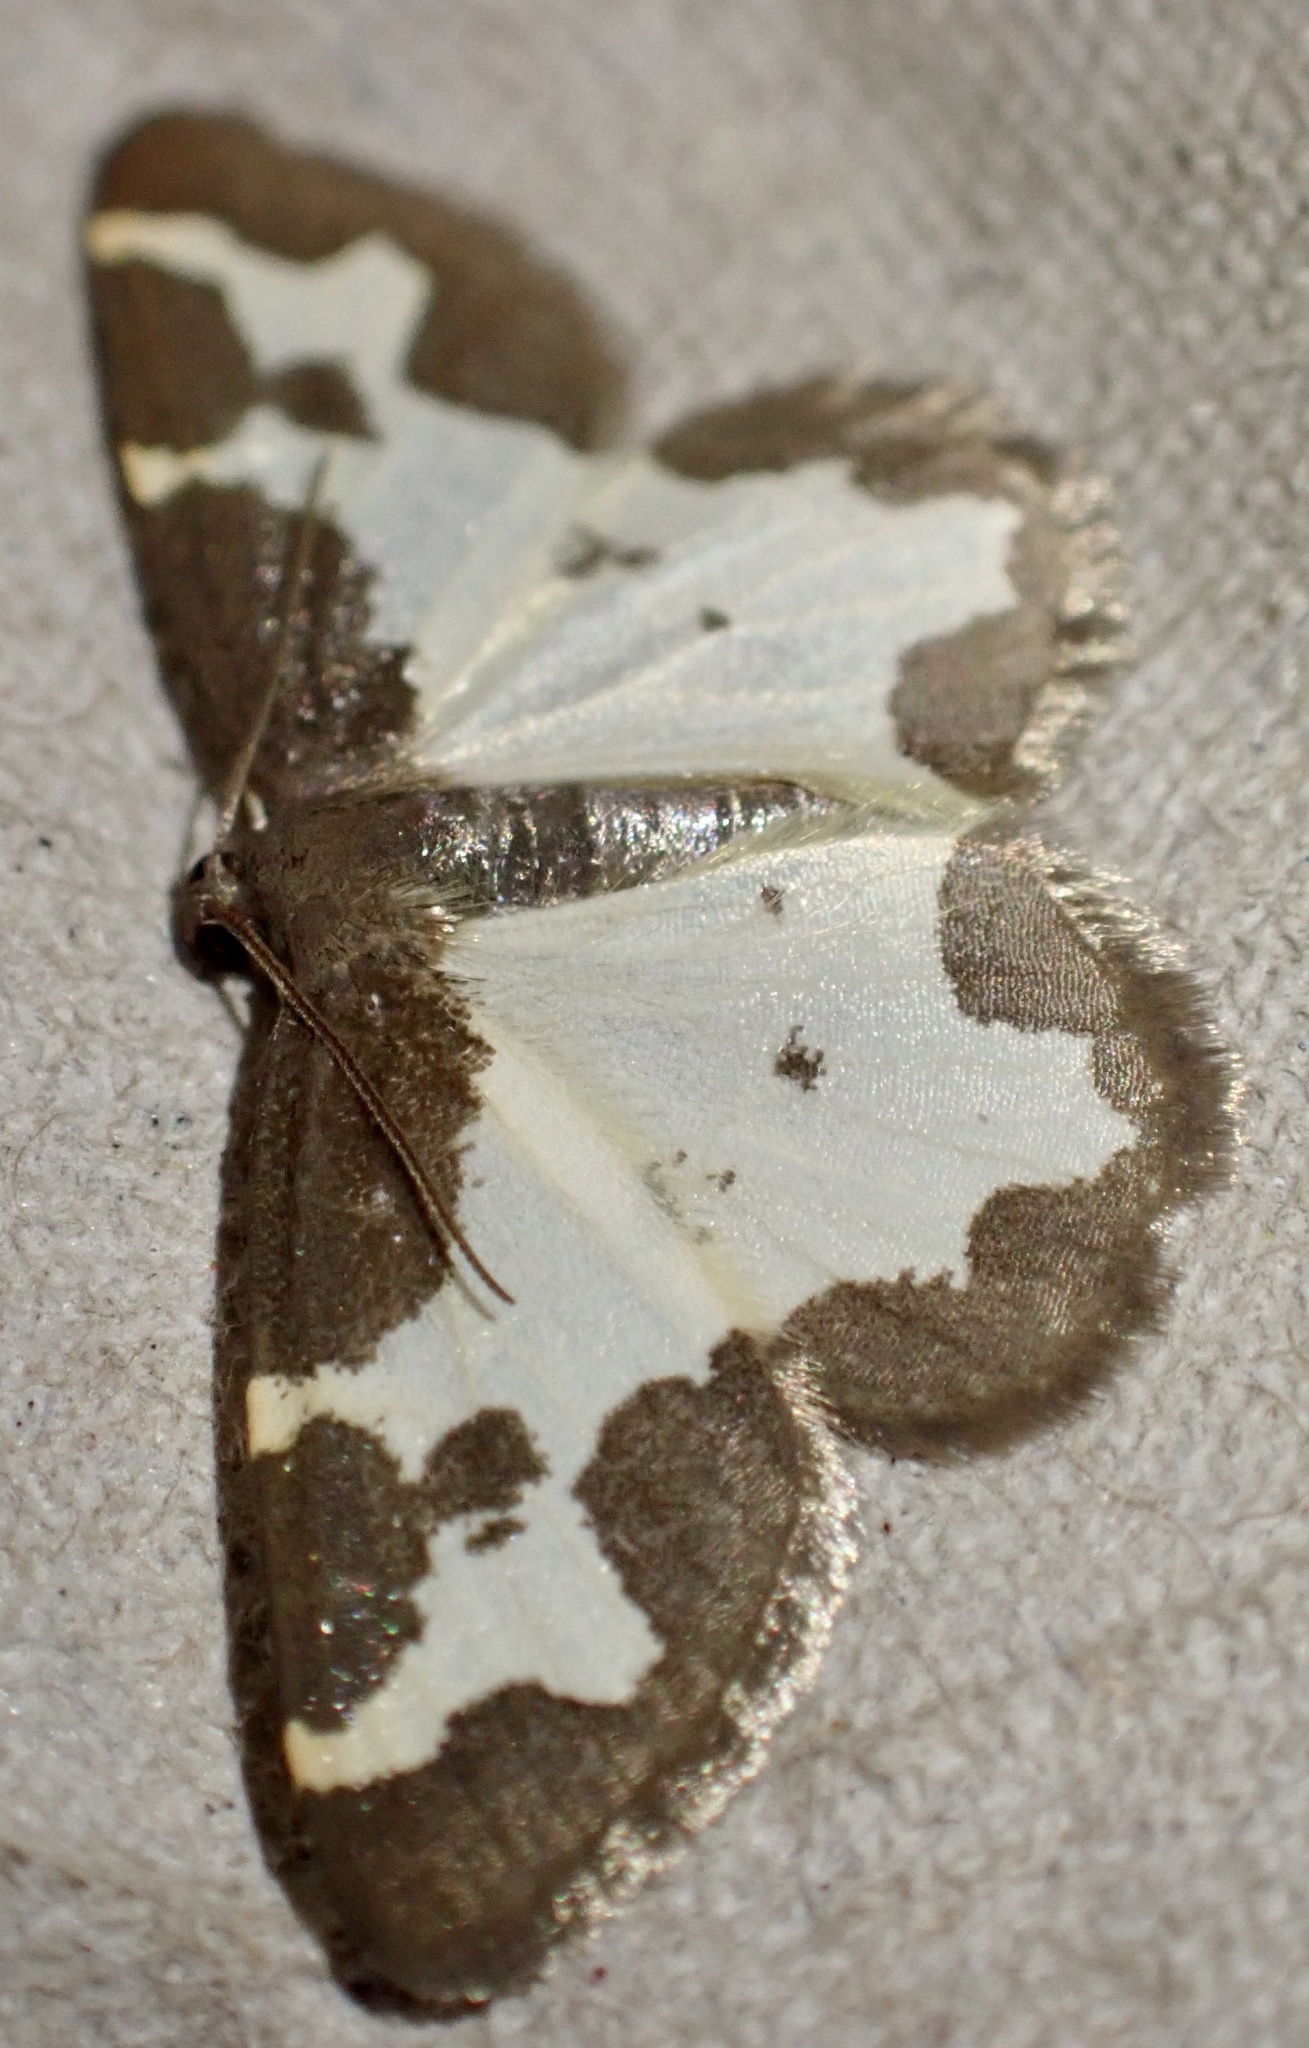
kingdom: Animalia
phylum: Arthropoda
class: Insecta
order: Lepidoptera
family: Geometridae
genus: Lomaspilis
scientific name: Lomaspilis marginata
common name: Clouded border
